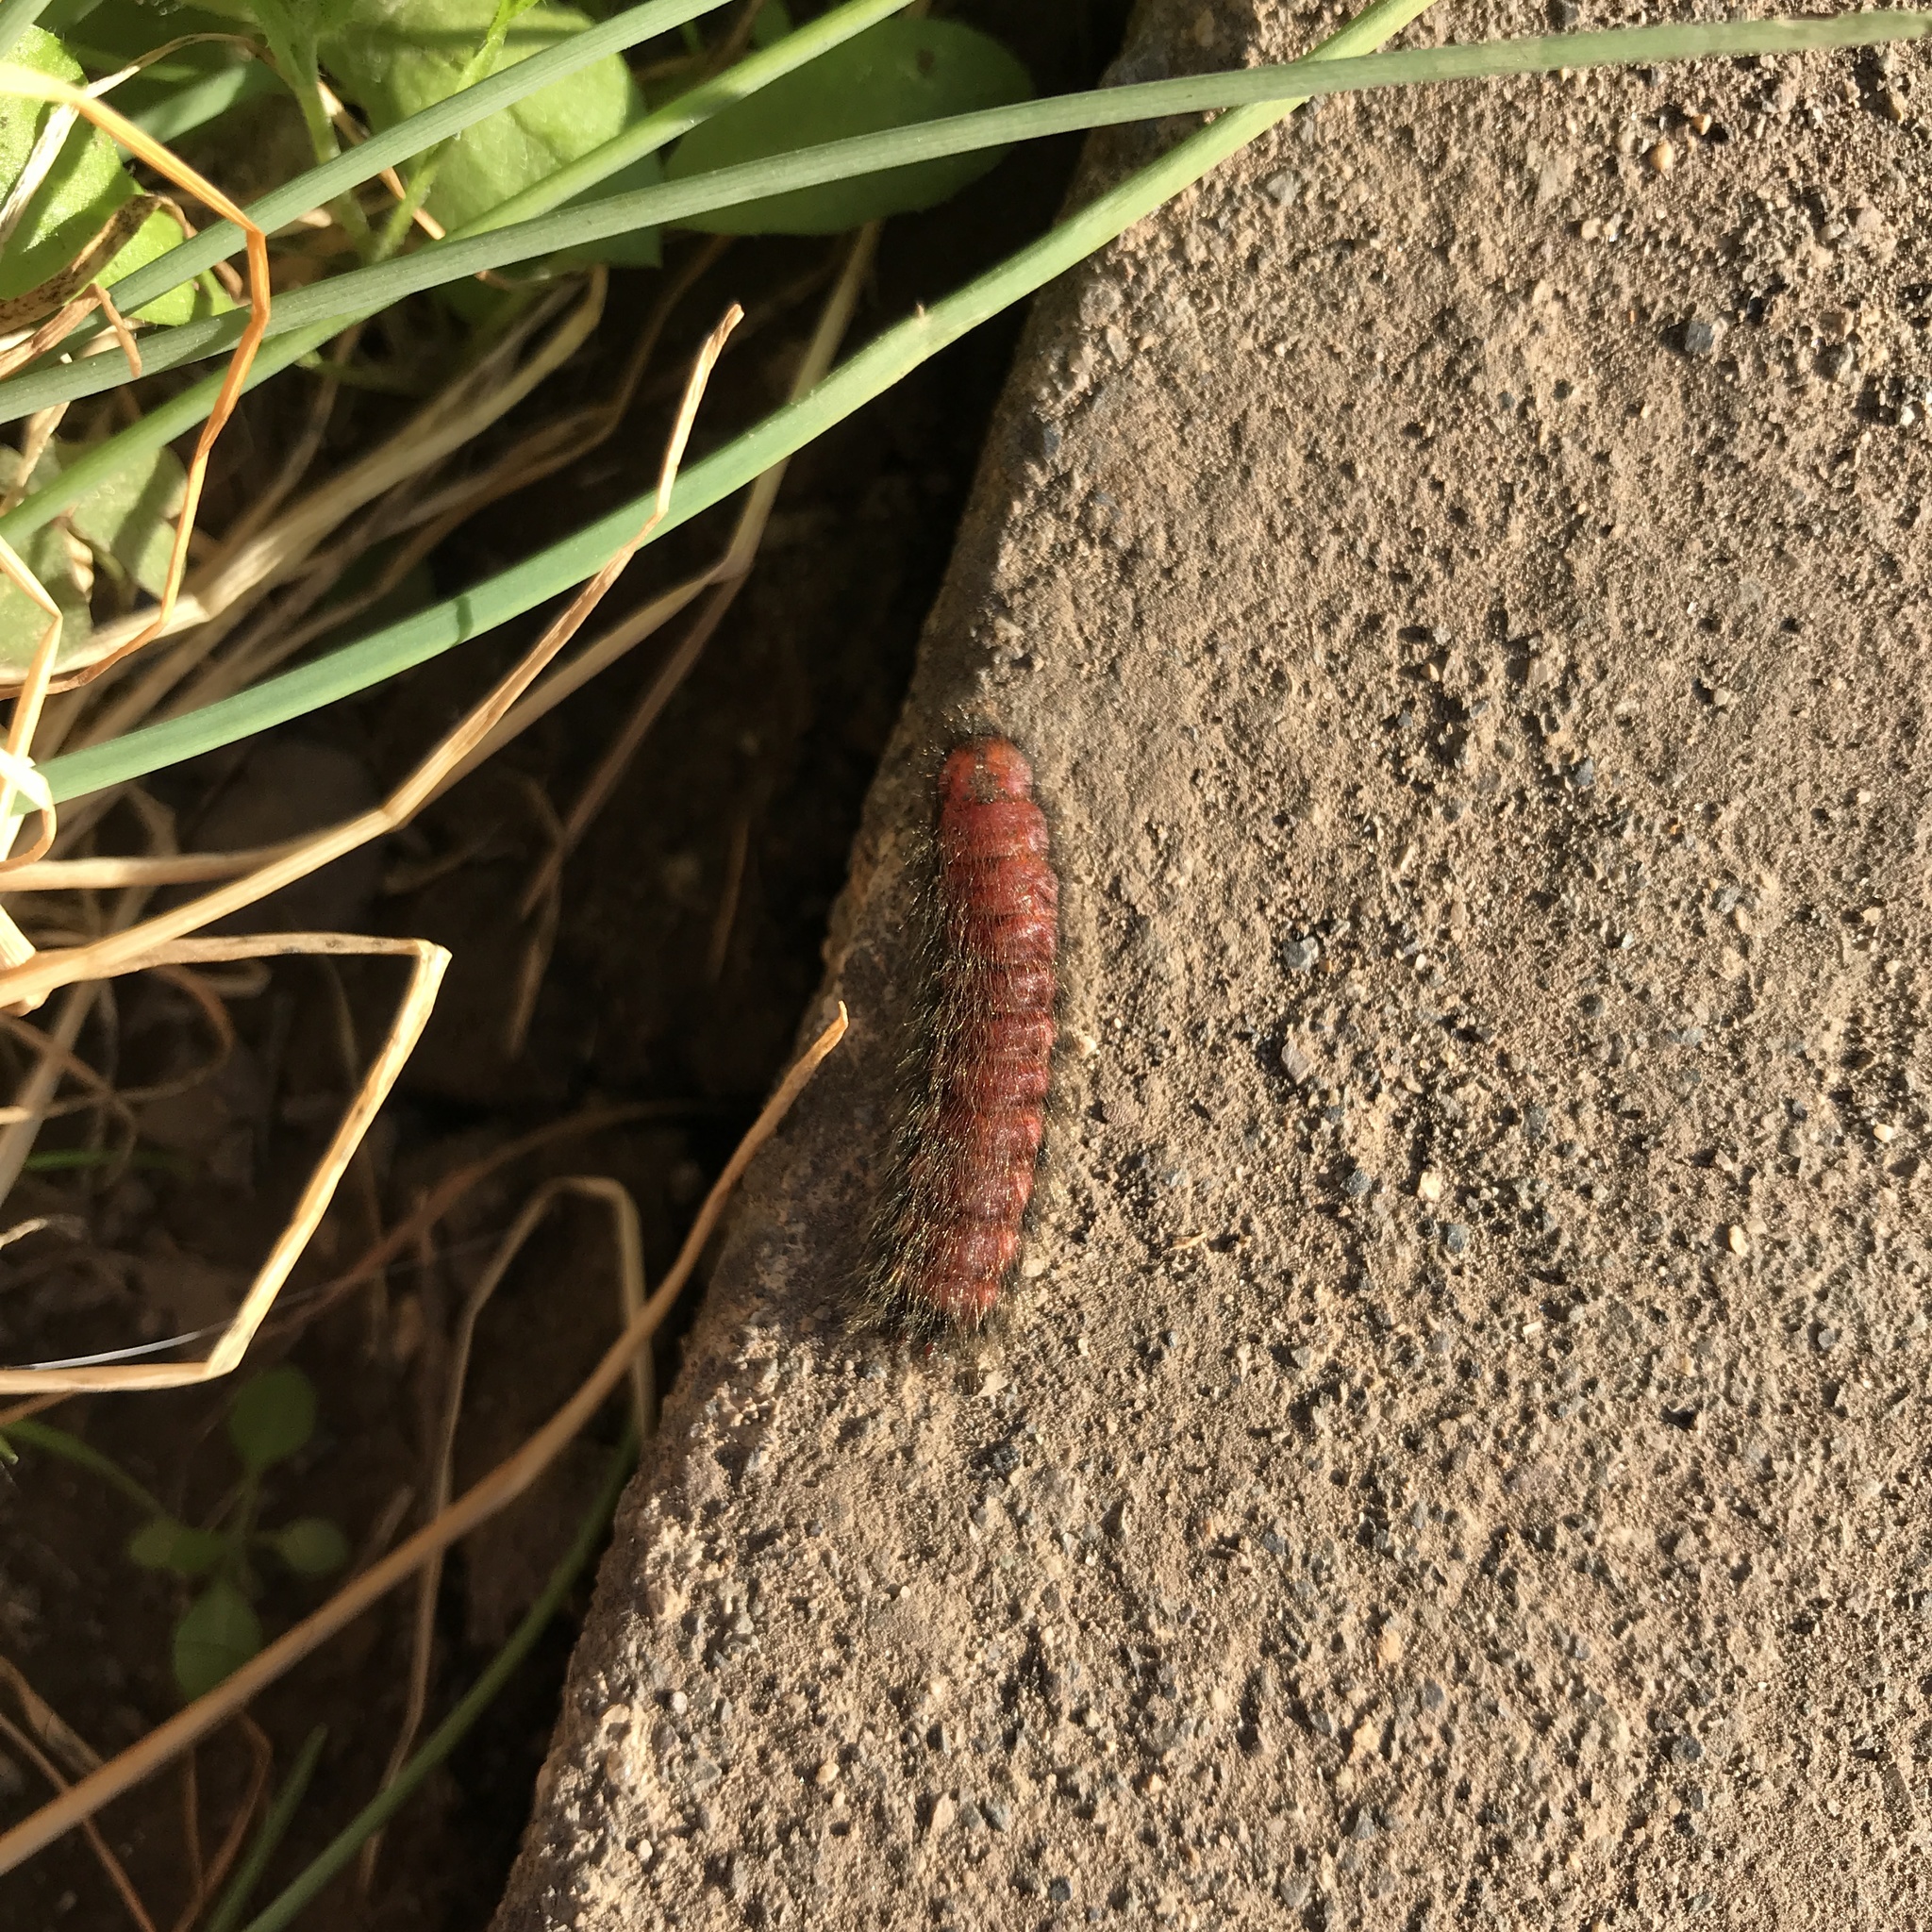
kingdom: Animalia
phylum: Arthropoda
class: Insecta
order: Coleoptera
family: Melyridae
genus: Astylus
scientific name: Astylus
